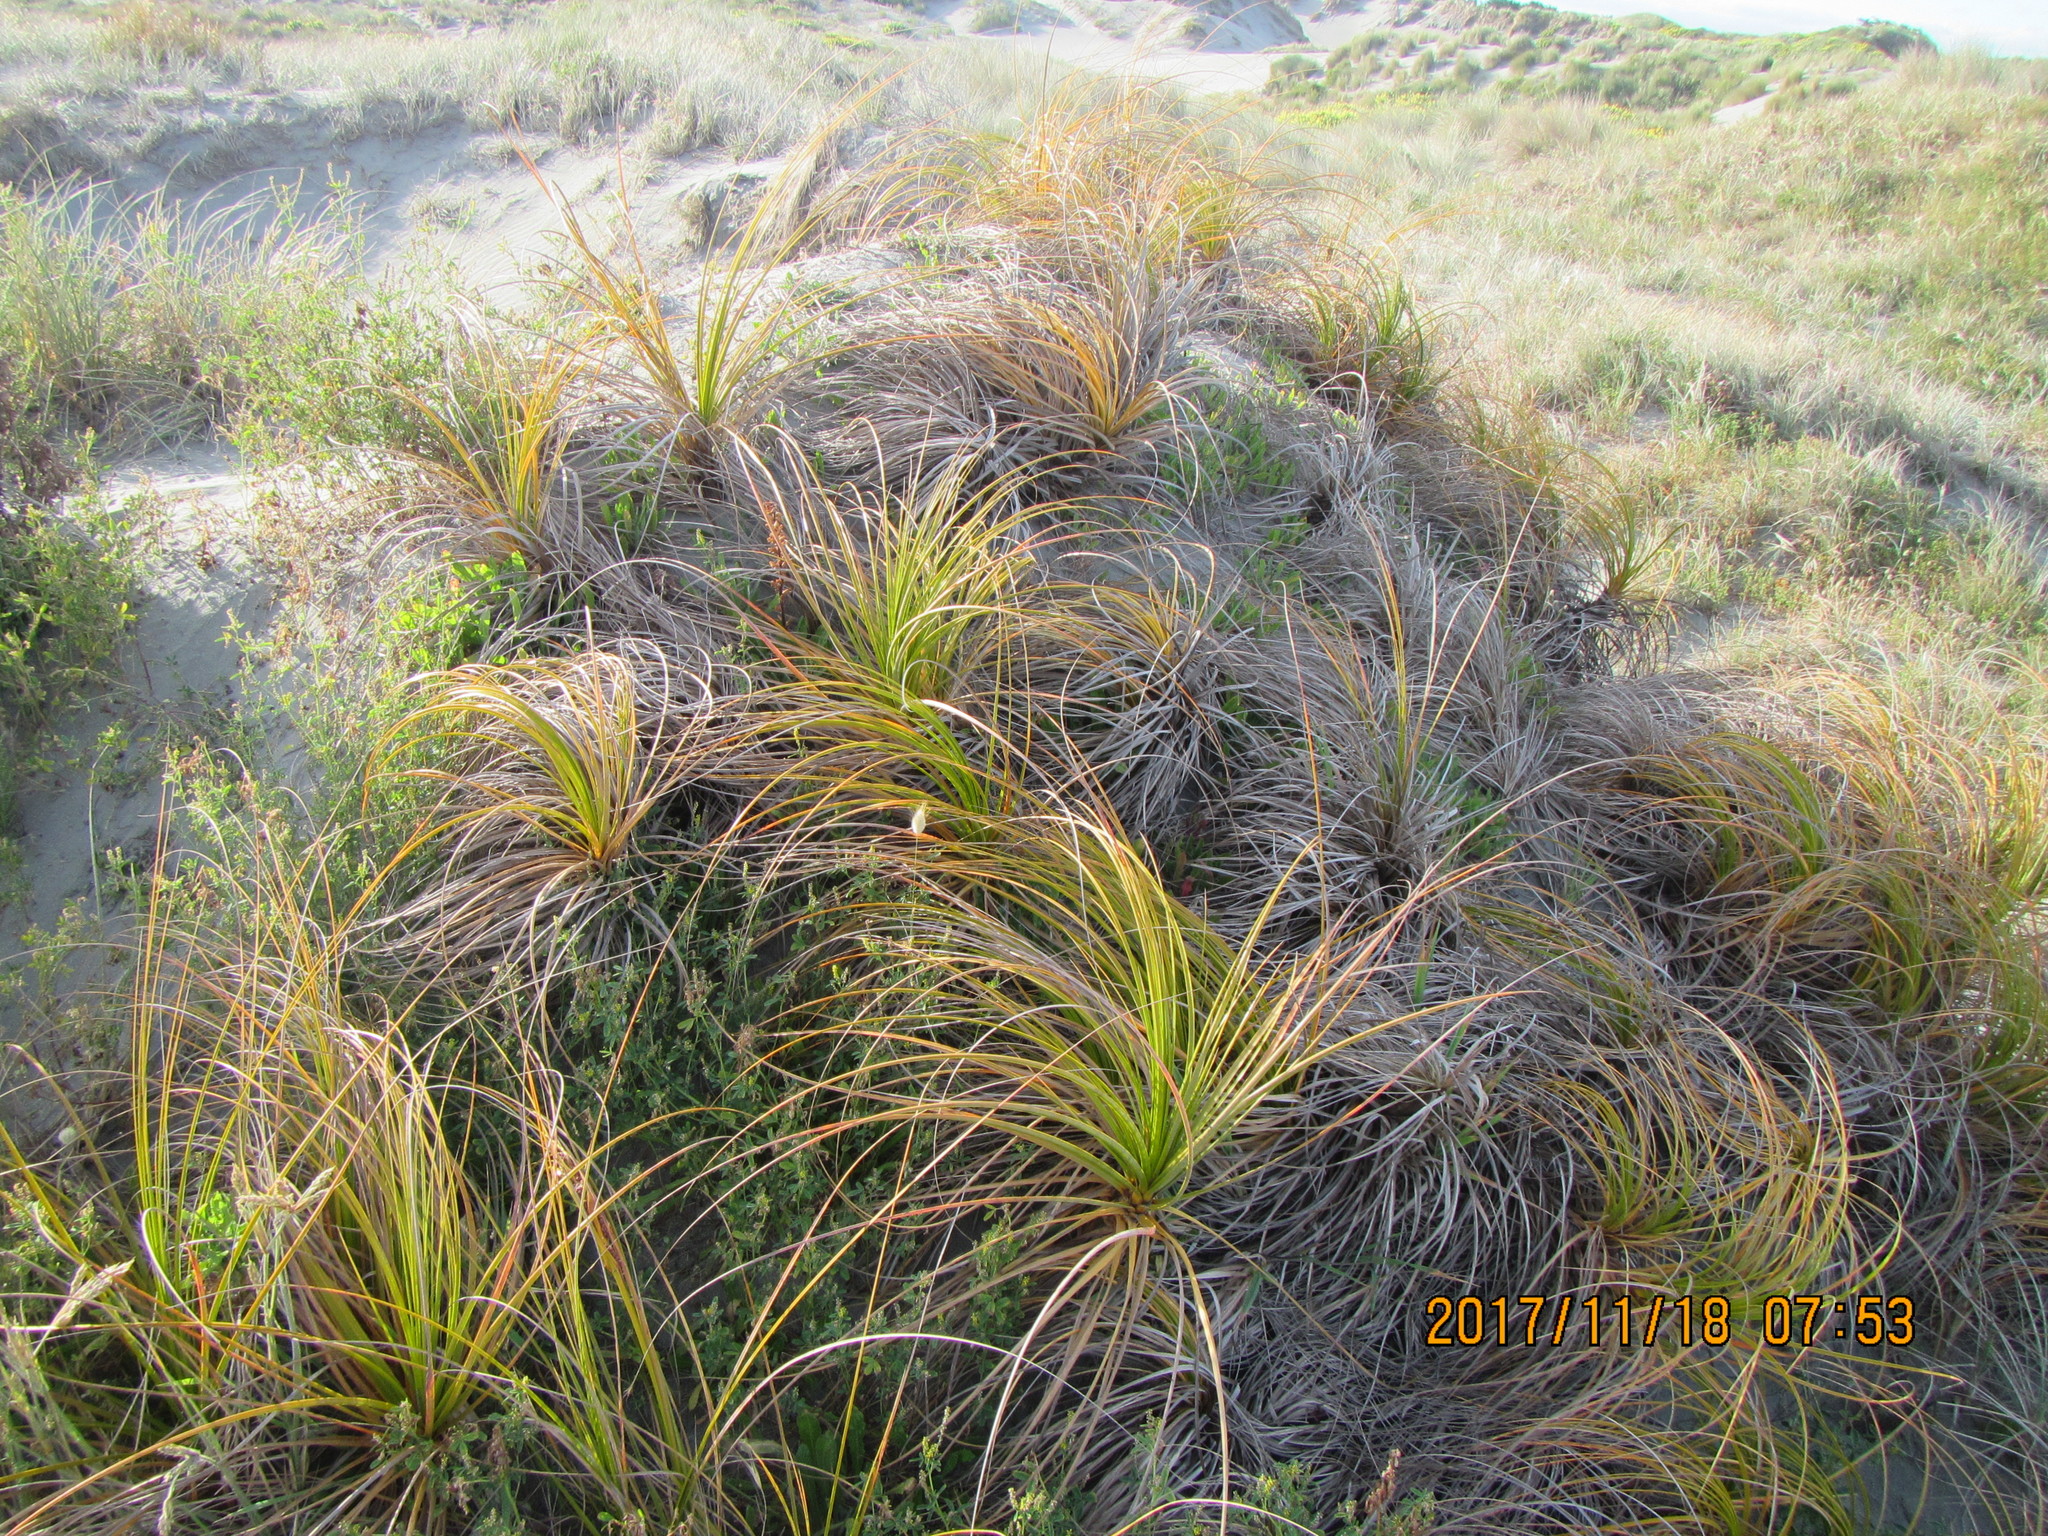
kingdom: Plantae
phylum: Tracheophyta
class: Liliopsida
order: Poales
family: Cyperaceae
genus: Ficinia
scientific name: Ficinia spiralis
